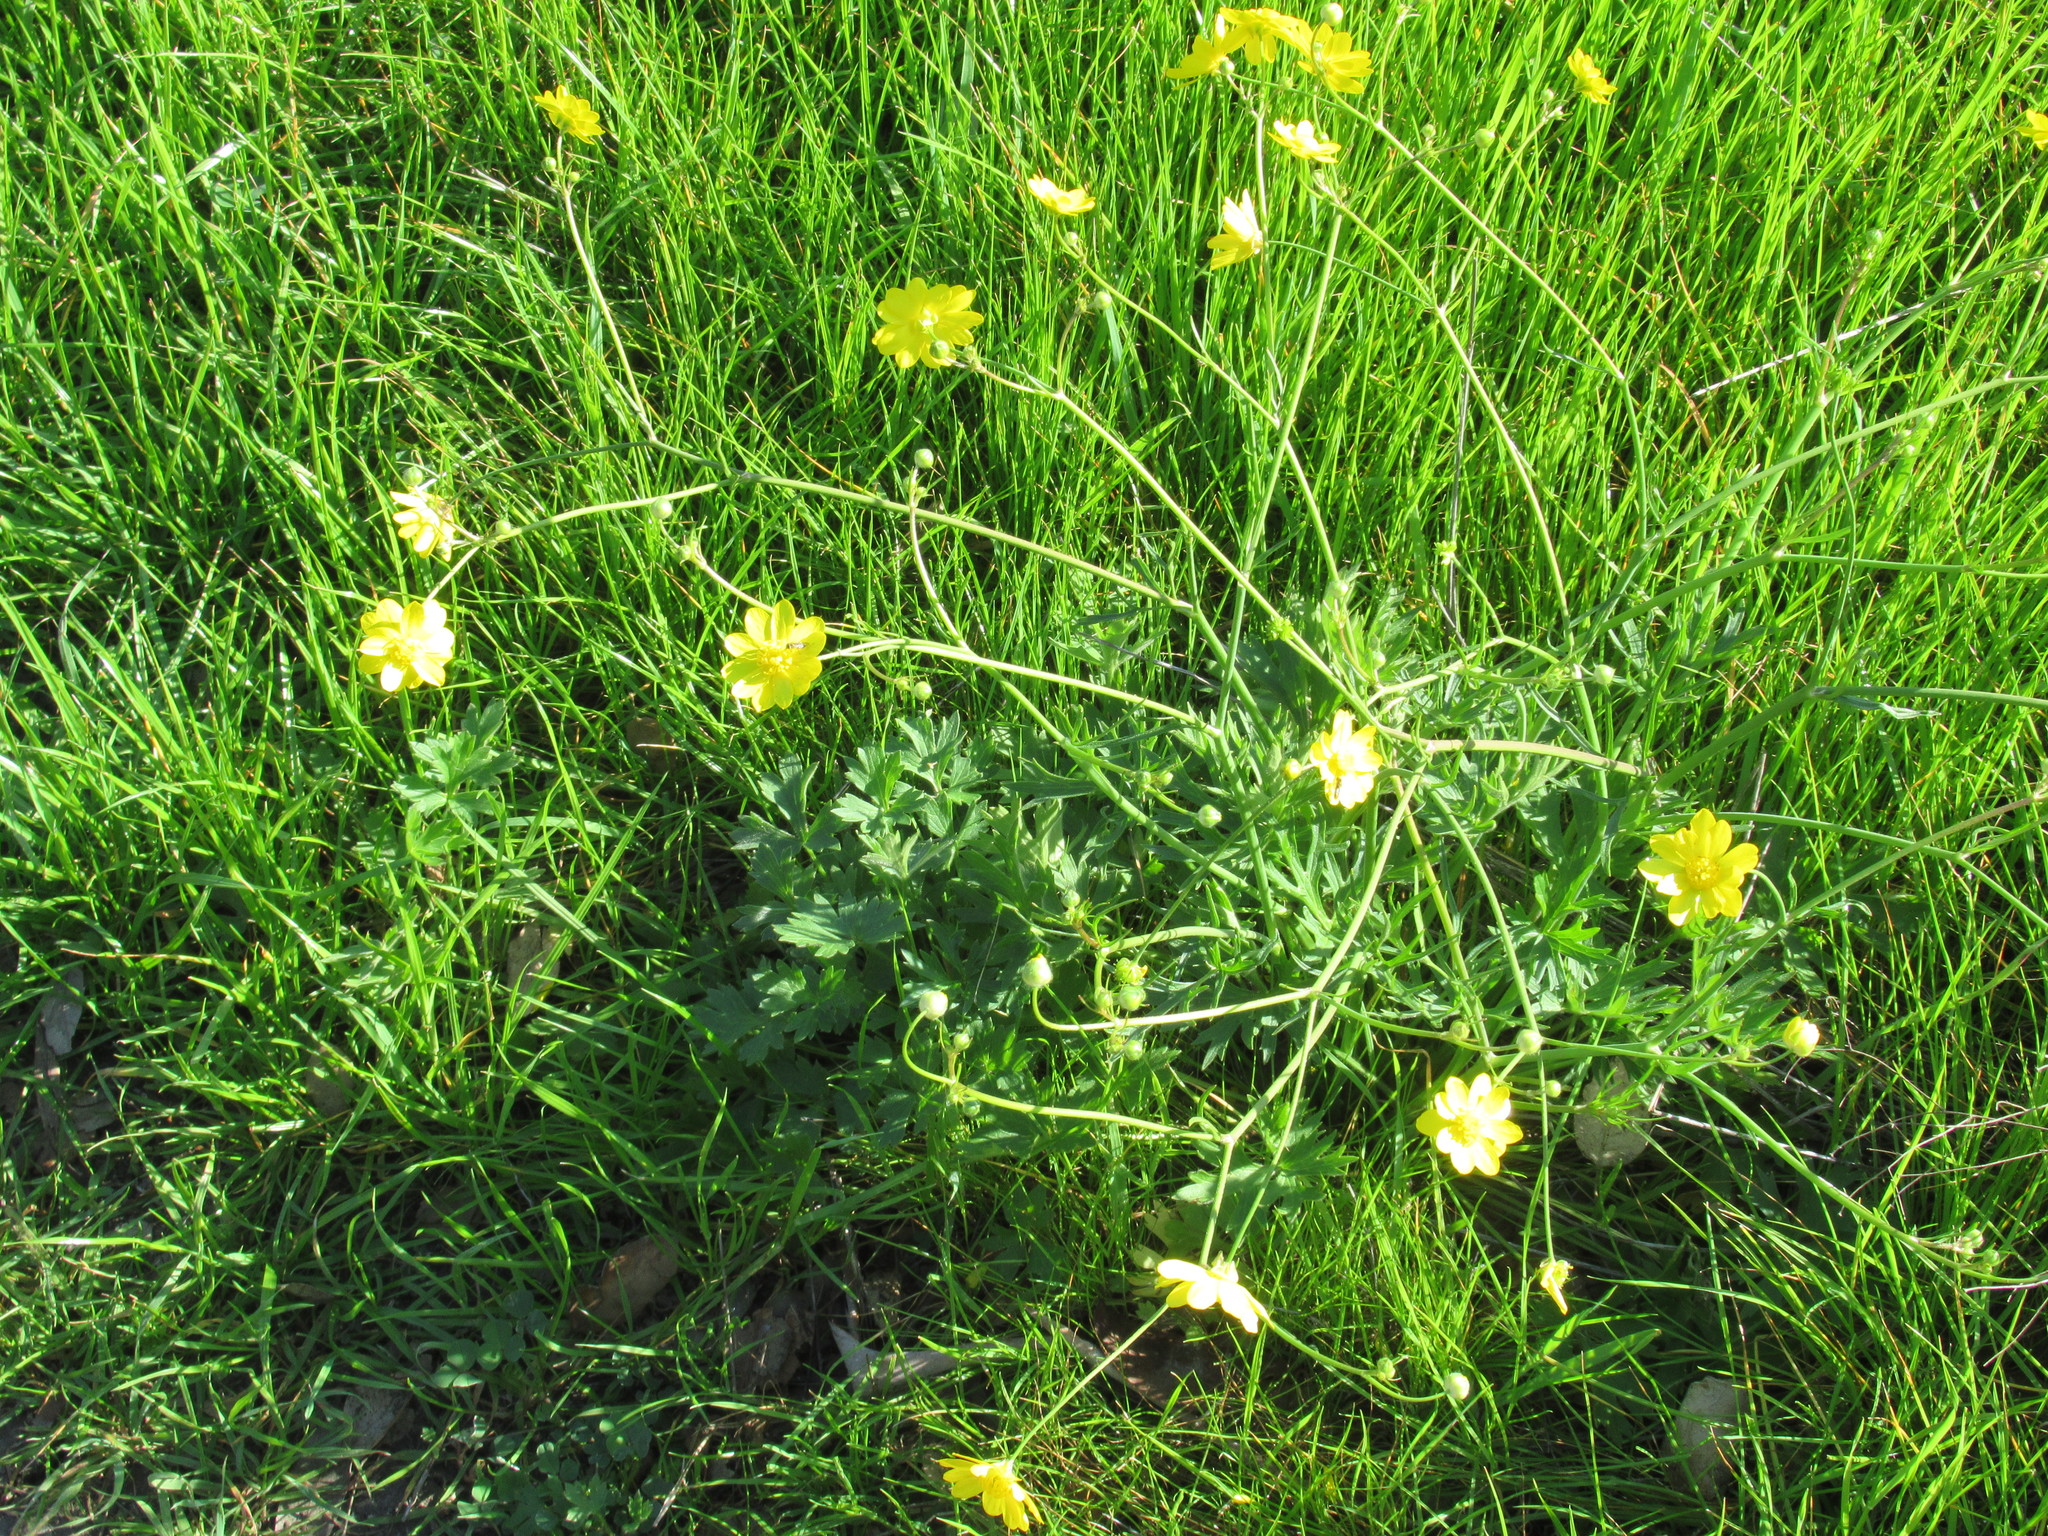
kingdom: Plantae
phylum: Tracheophyta
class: Magnoliopsida
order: Ranunculales
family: Ranunculaceae
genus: Ranunculus
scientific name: Ranunculus californicus
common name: California buttercup
